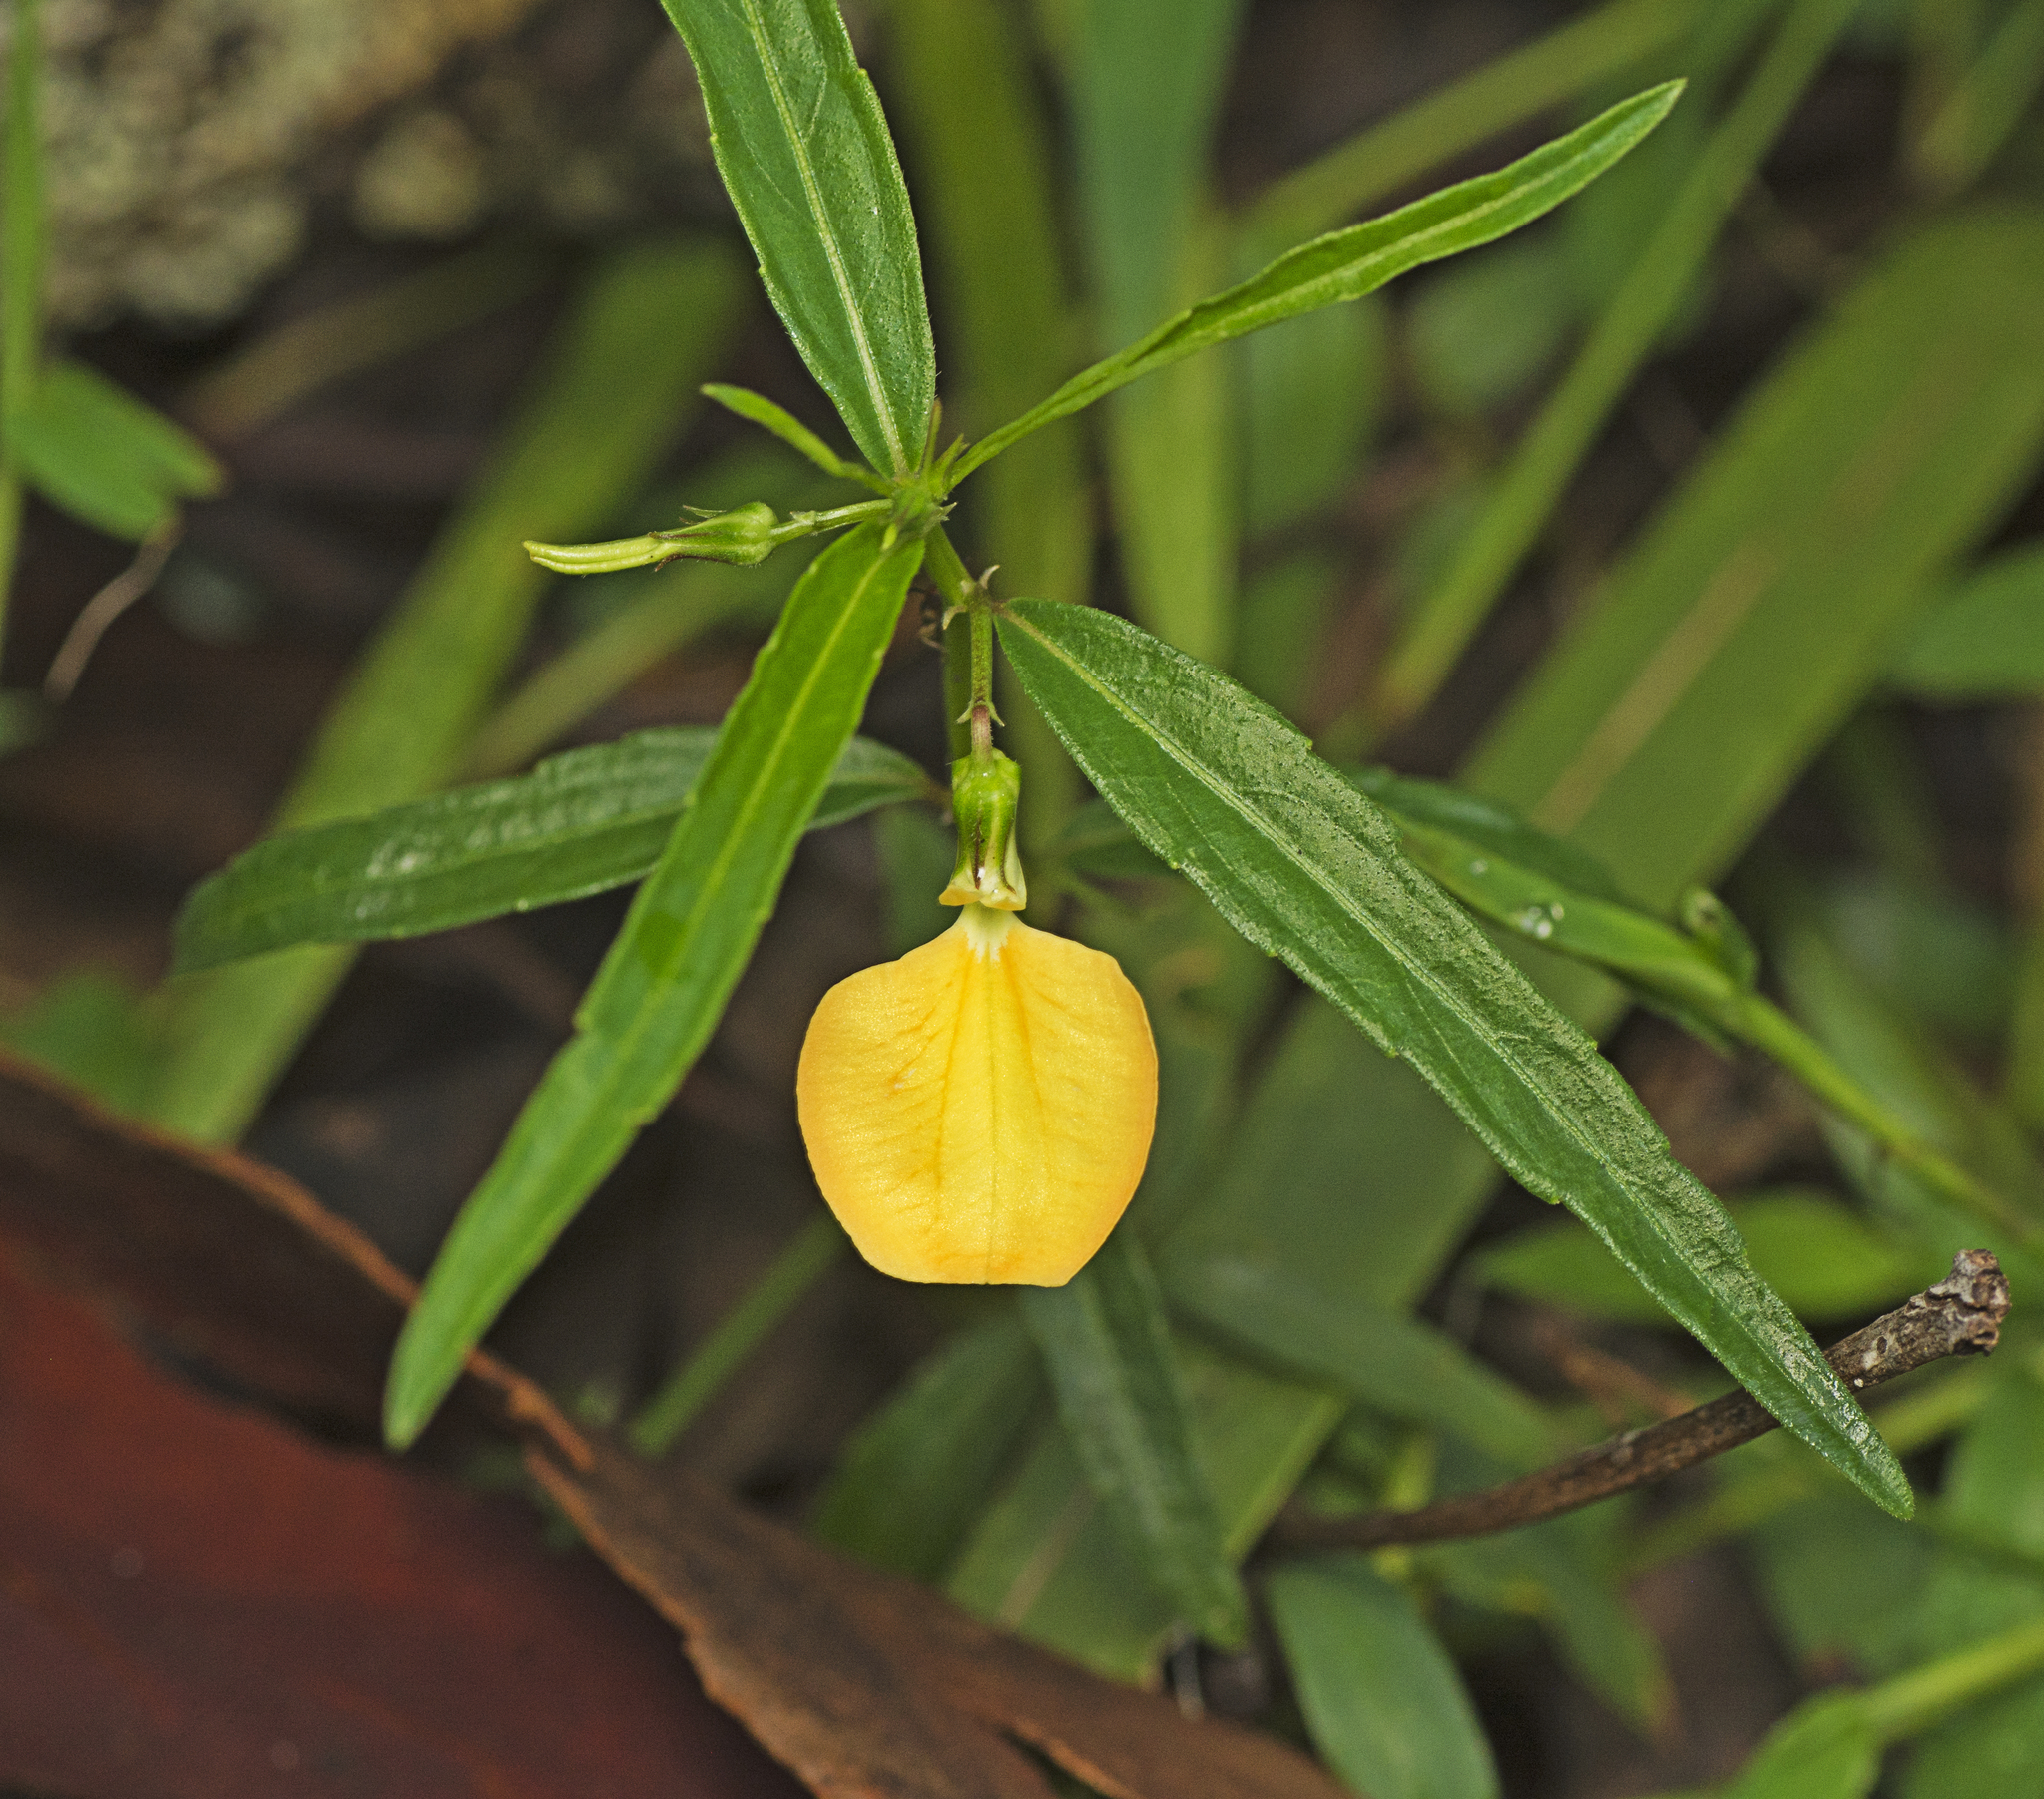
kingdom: Plantae
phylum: Tracheophyta
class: Magnoliopsida
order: Malpighiales
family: Violaceae
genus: Pigea
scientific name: Pigea stellarioides
